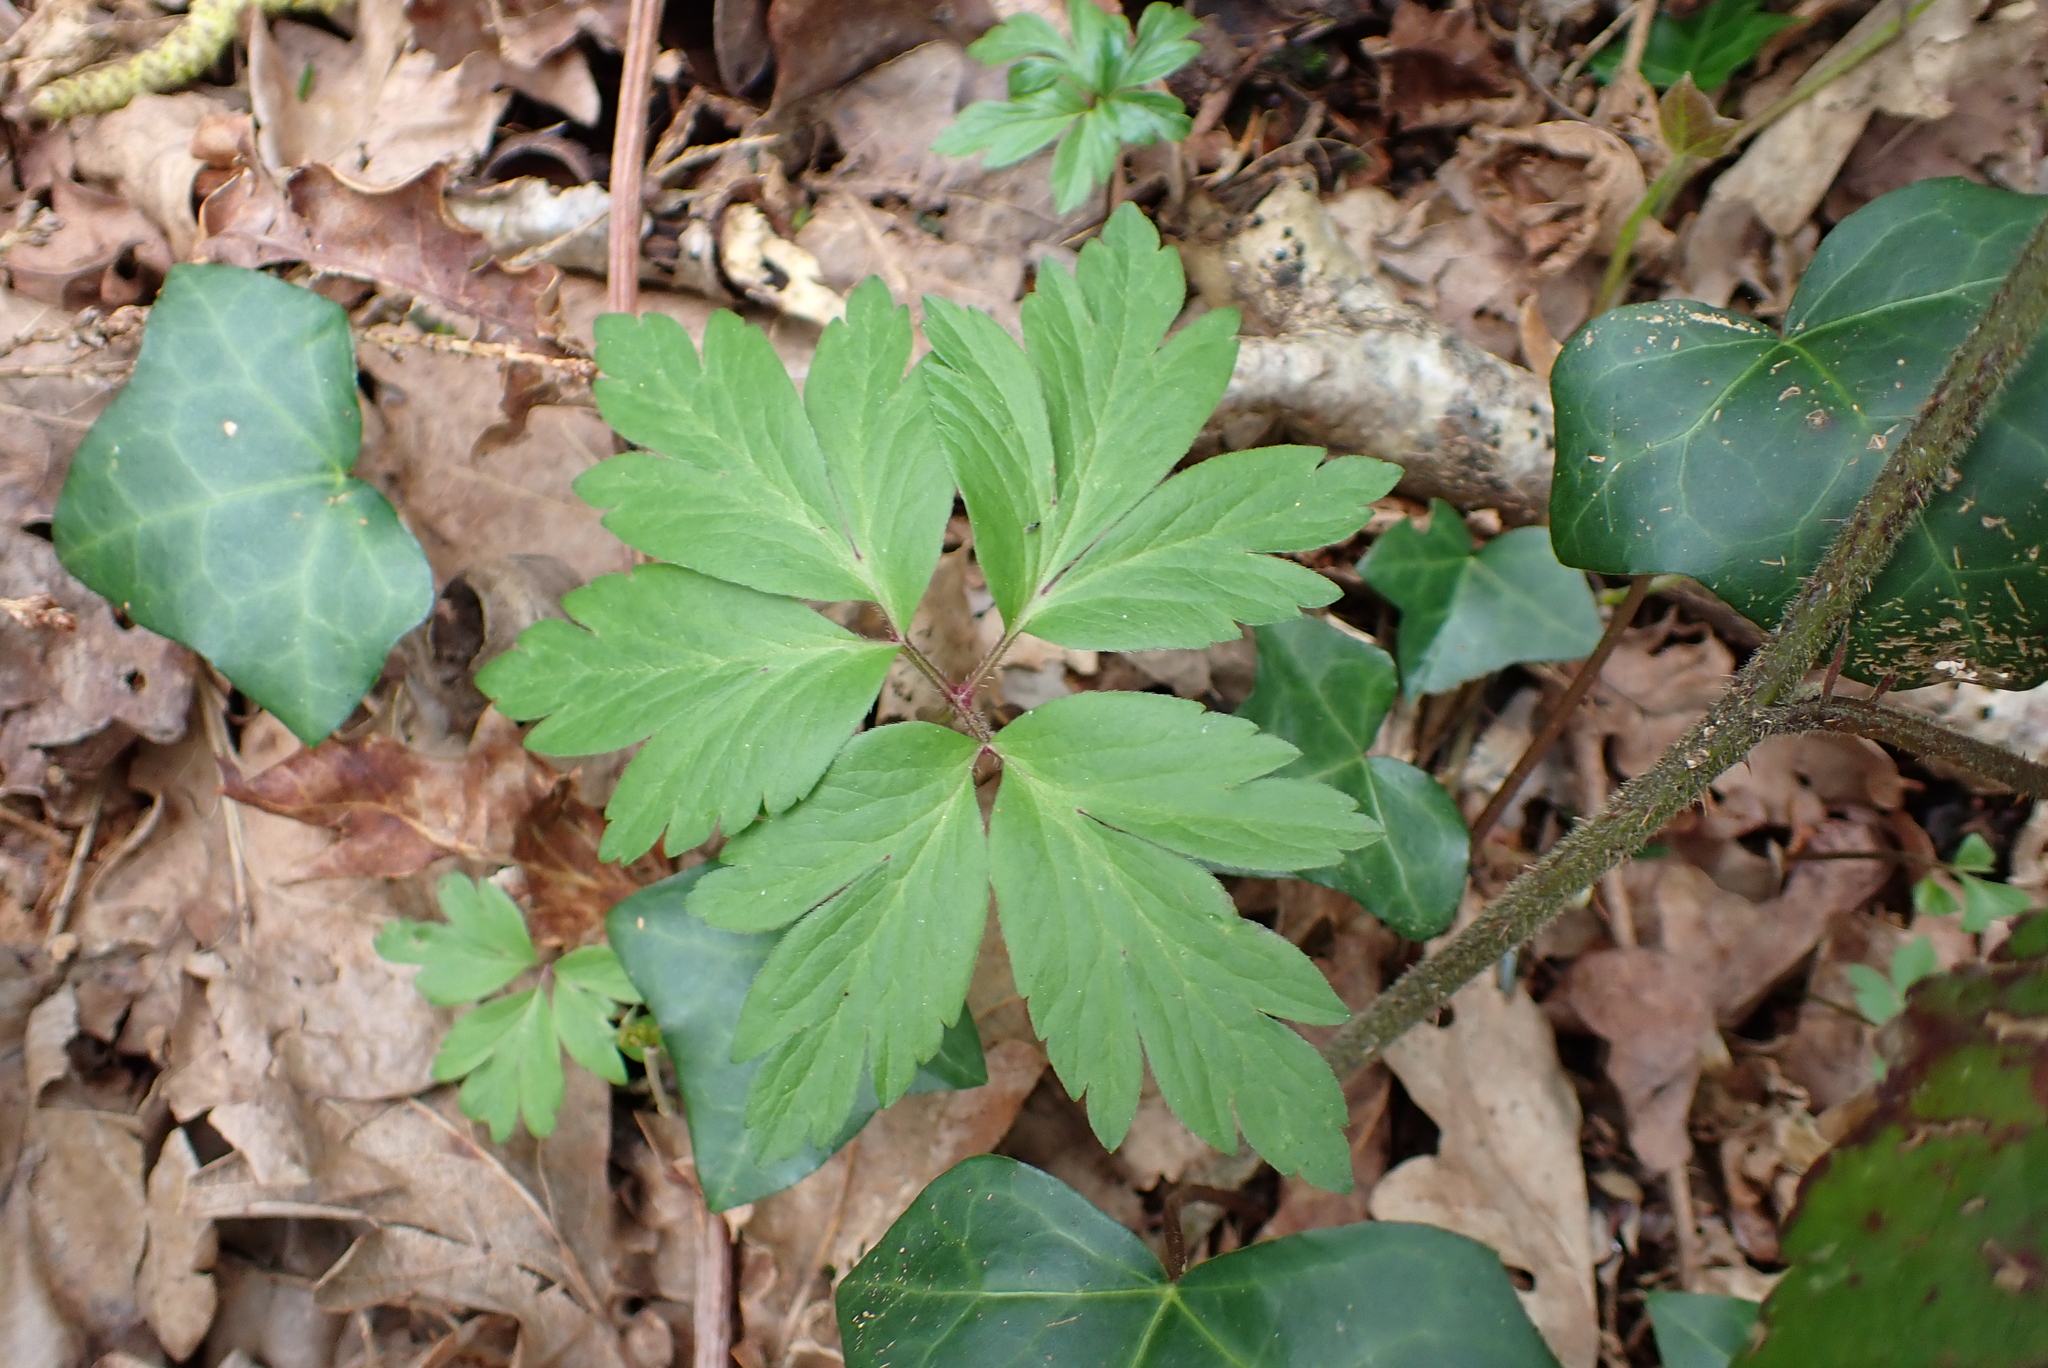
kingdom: Plantae
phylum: Tracheophyta
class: Magnoliopsida
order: Ranunculales
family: Ranunculaceae
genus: Anemone
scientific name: Anemone nemorosa
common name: Wood anemone
